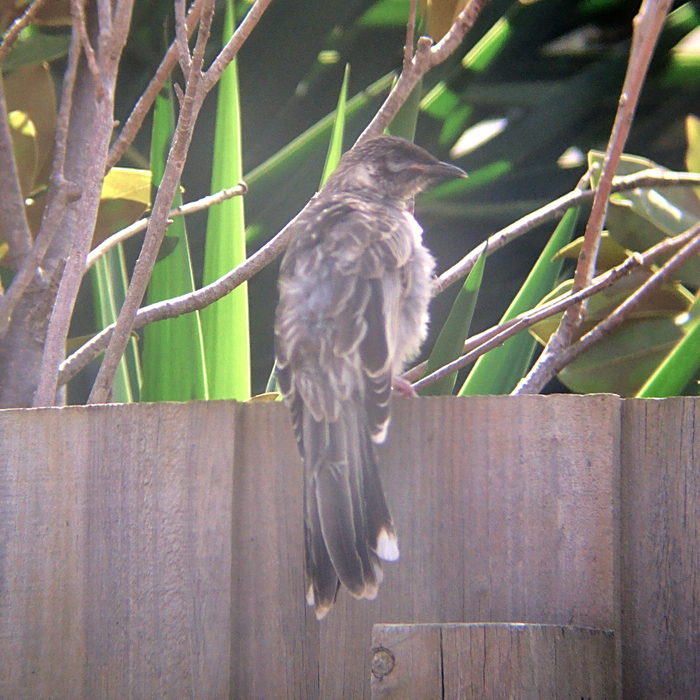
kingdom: Animalia
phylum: Chordata
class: Aves
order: Passeriformes
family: Meliphagidae
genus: Anthochaera
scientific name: Anthochaera carunculata
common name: Red wattlebird
